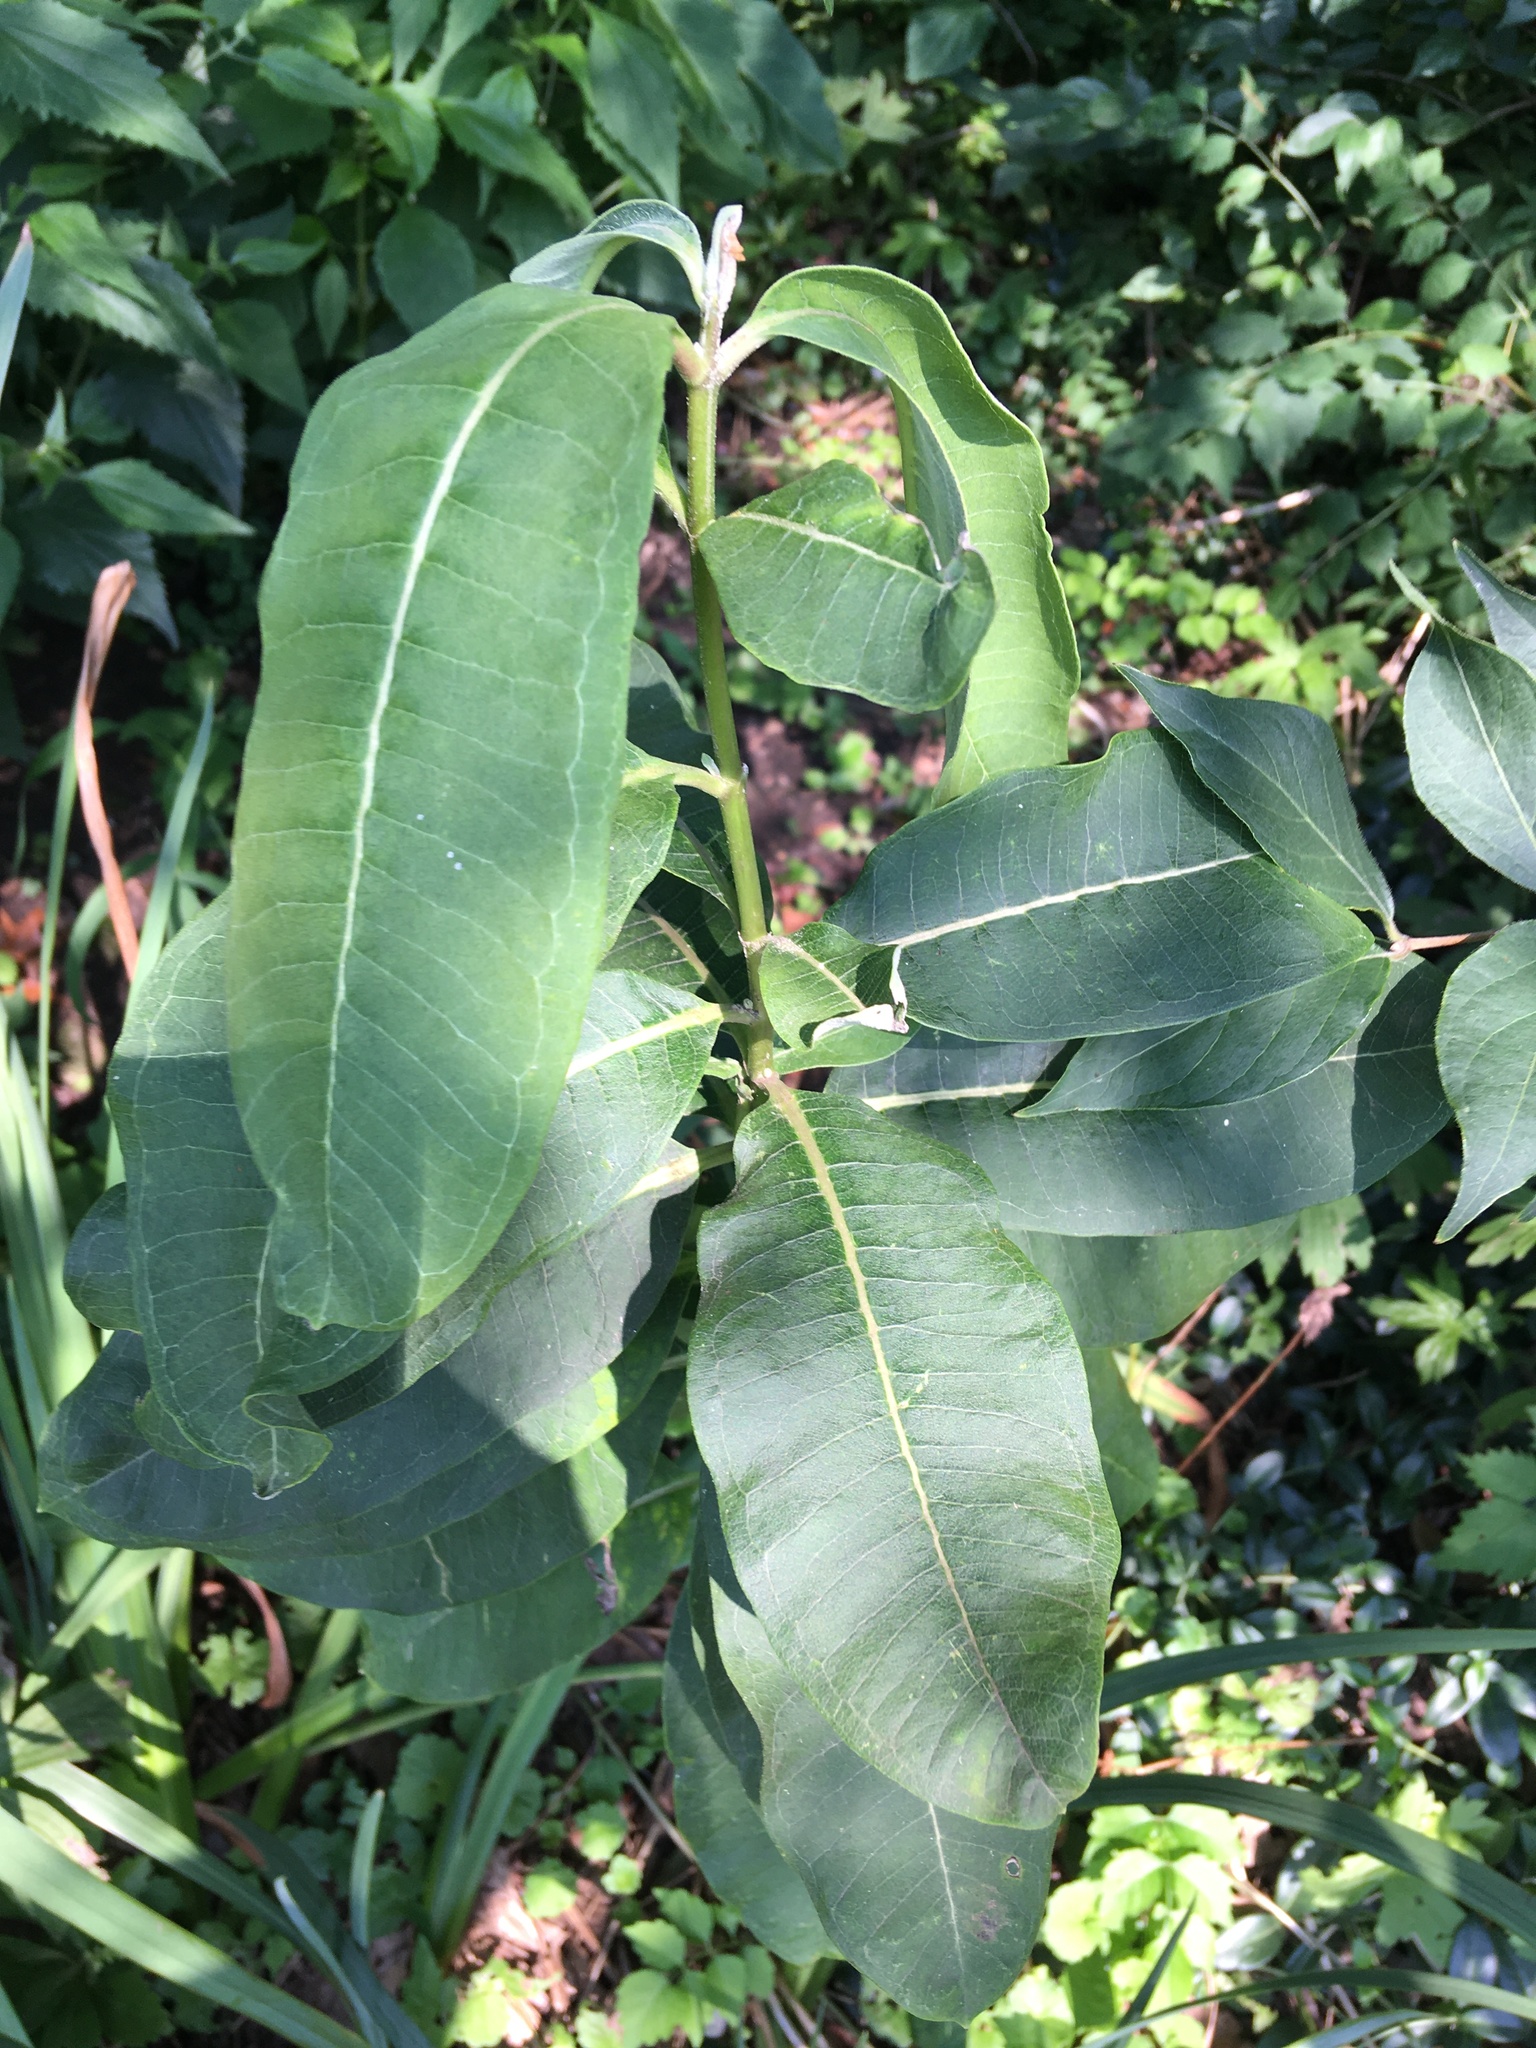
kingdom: Plantae
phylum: Tracheophyta
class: Magnoliopsida
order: Gentianales
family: Apocynaceae
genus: Asclepias
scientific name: Asclepias syriaca
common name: Common milkweed
